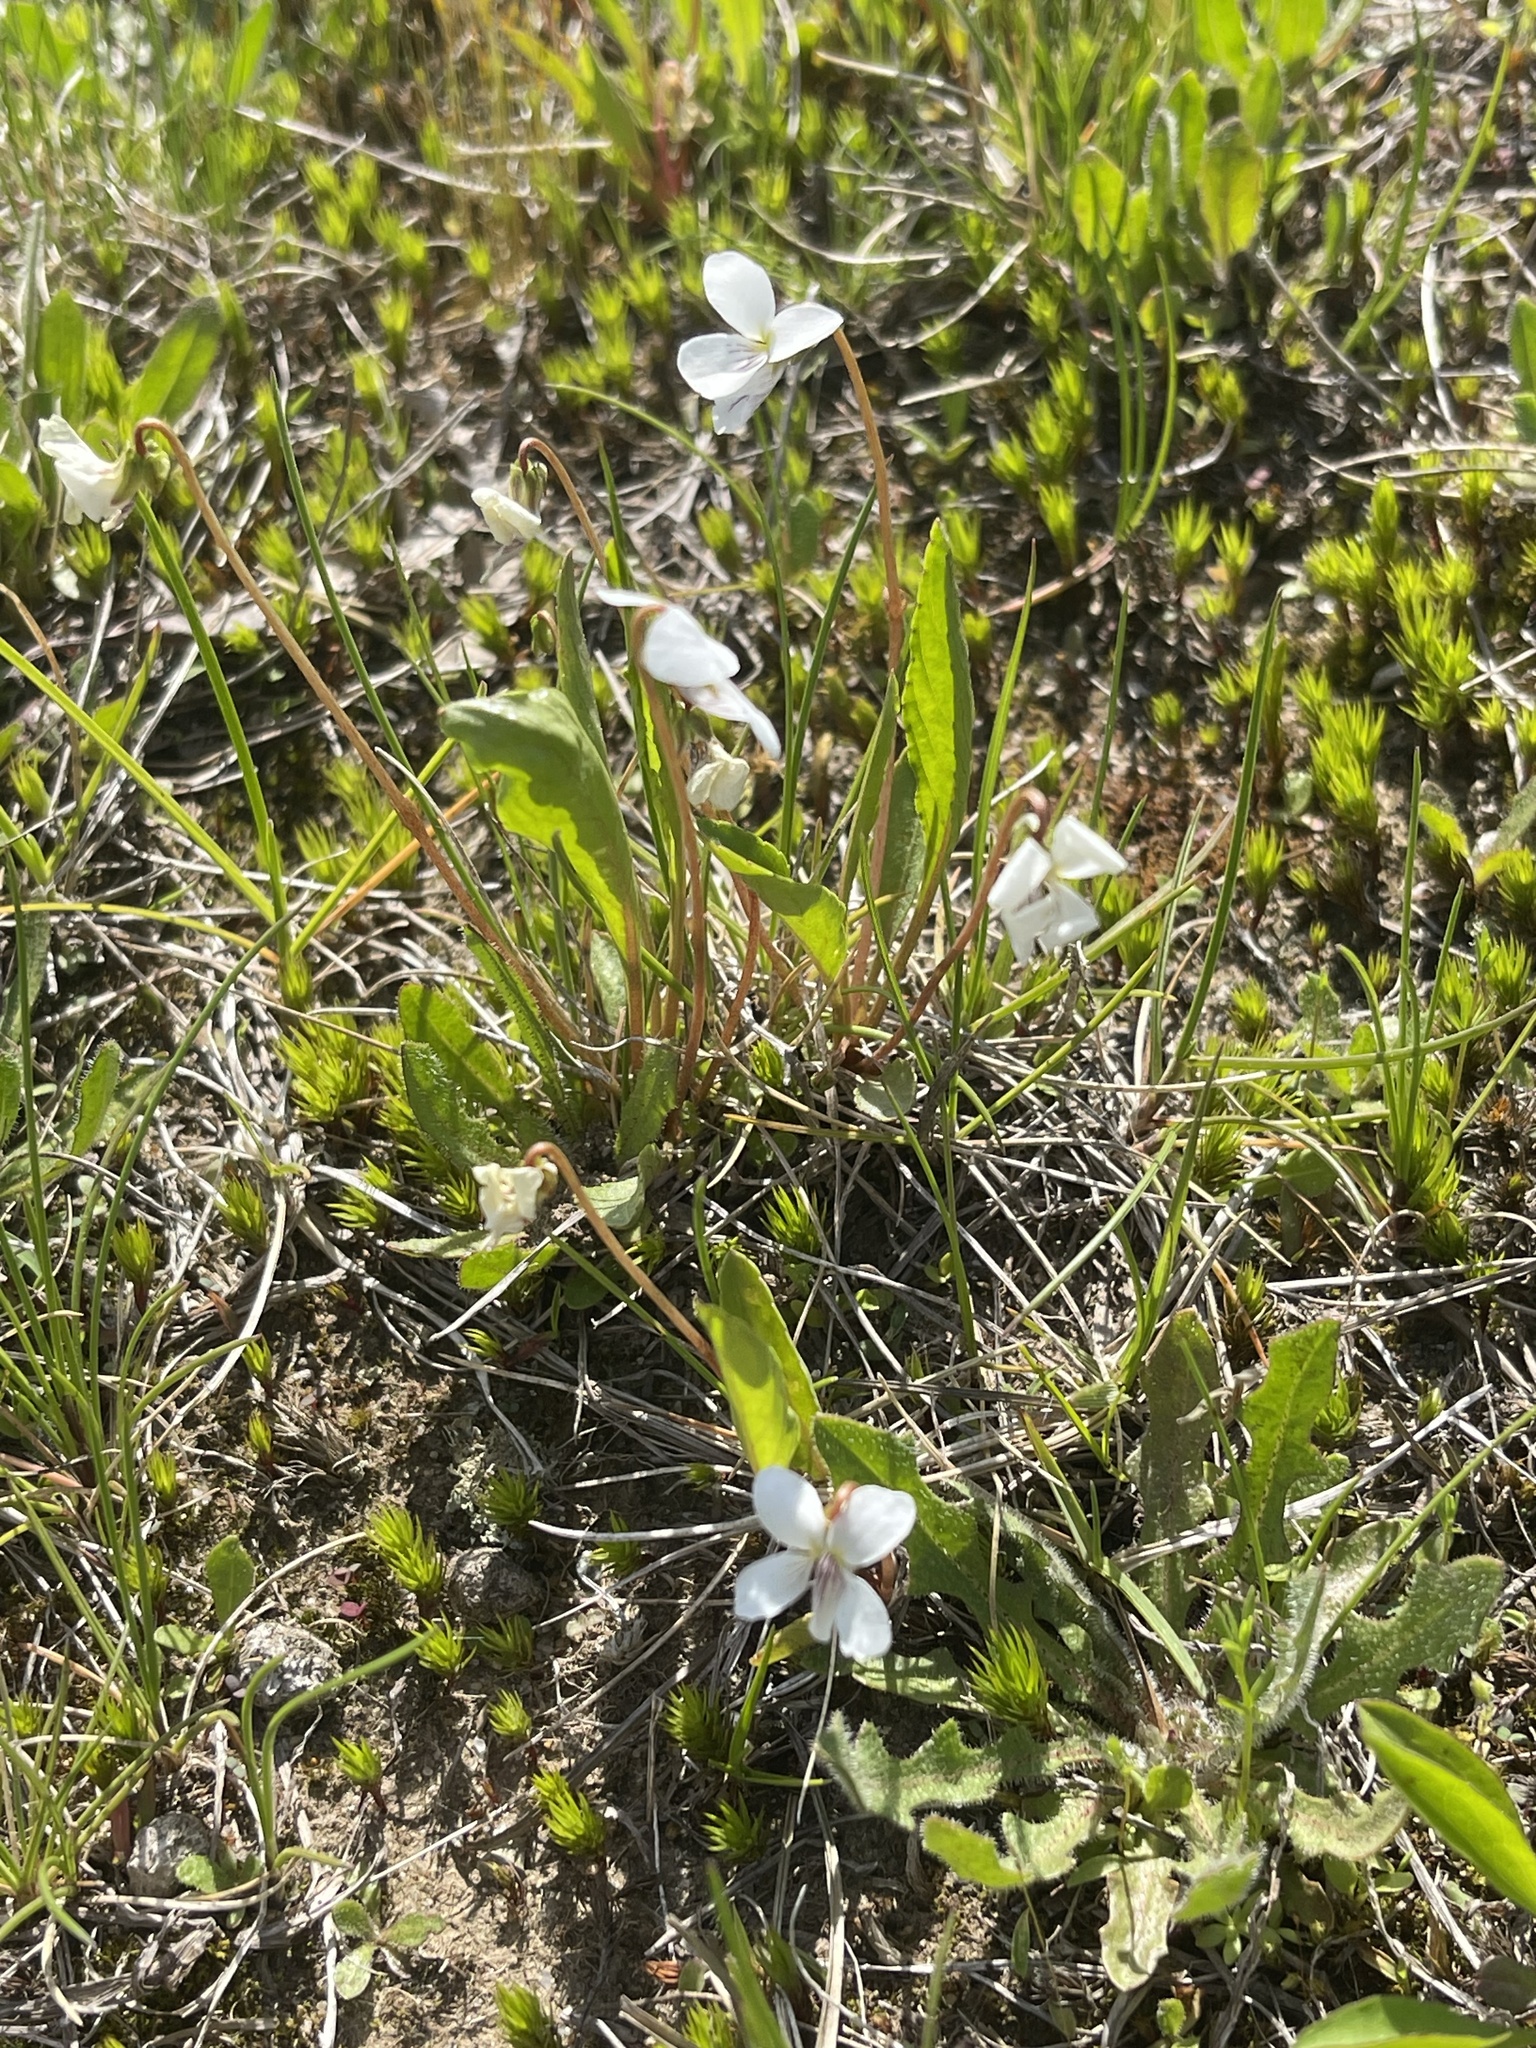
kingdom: Plantae
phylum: Tracheophyta
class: Magnoliopsida
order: Malpighiales
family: Violaceae
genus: Viola
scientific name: Viola lanceolata
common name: Bog white violet
